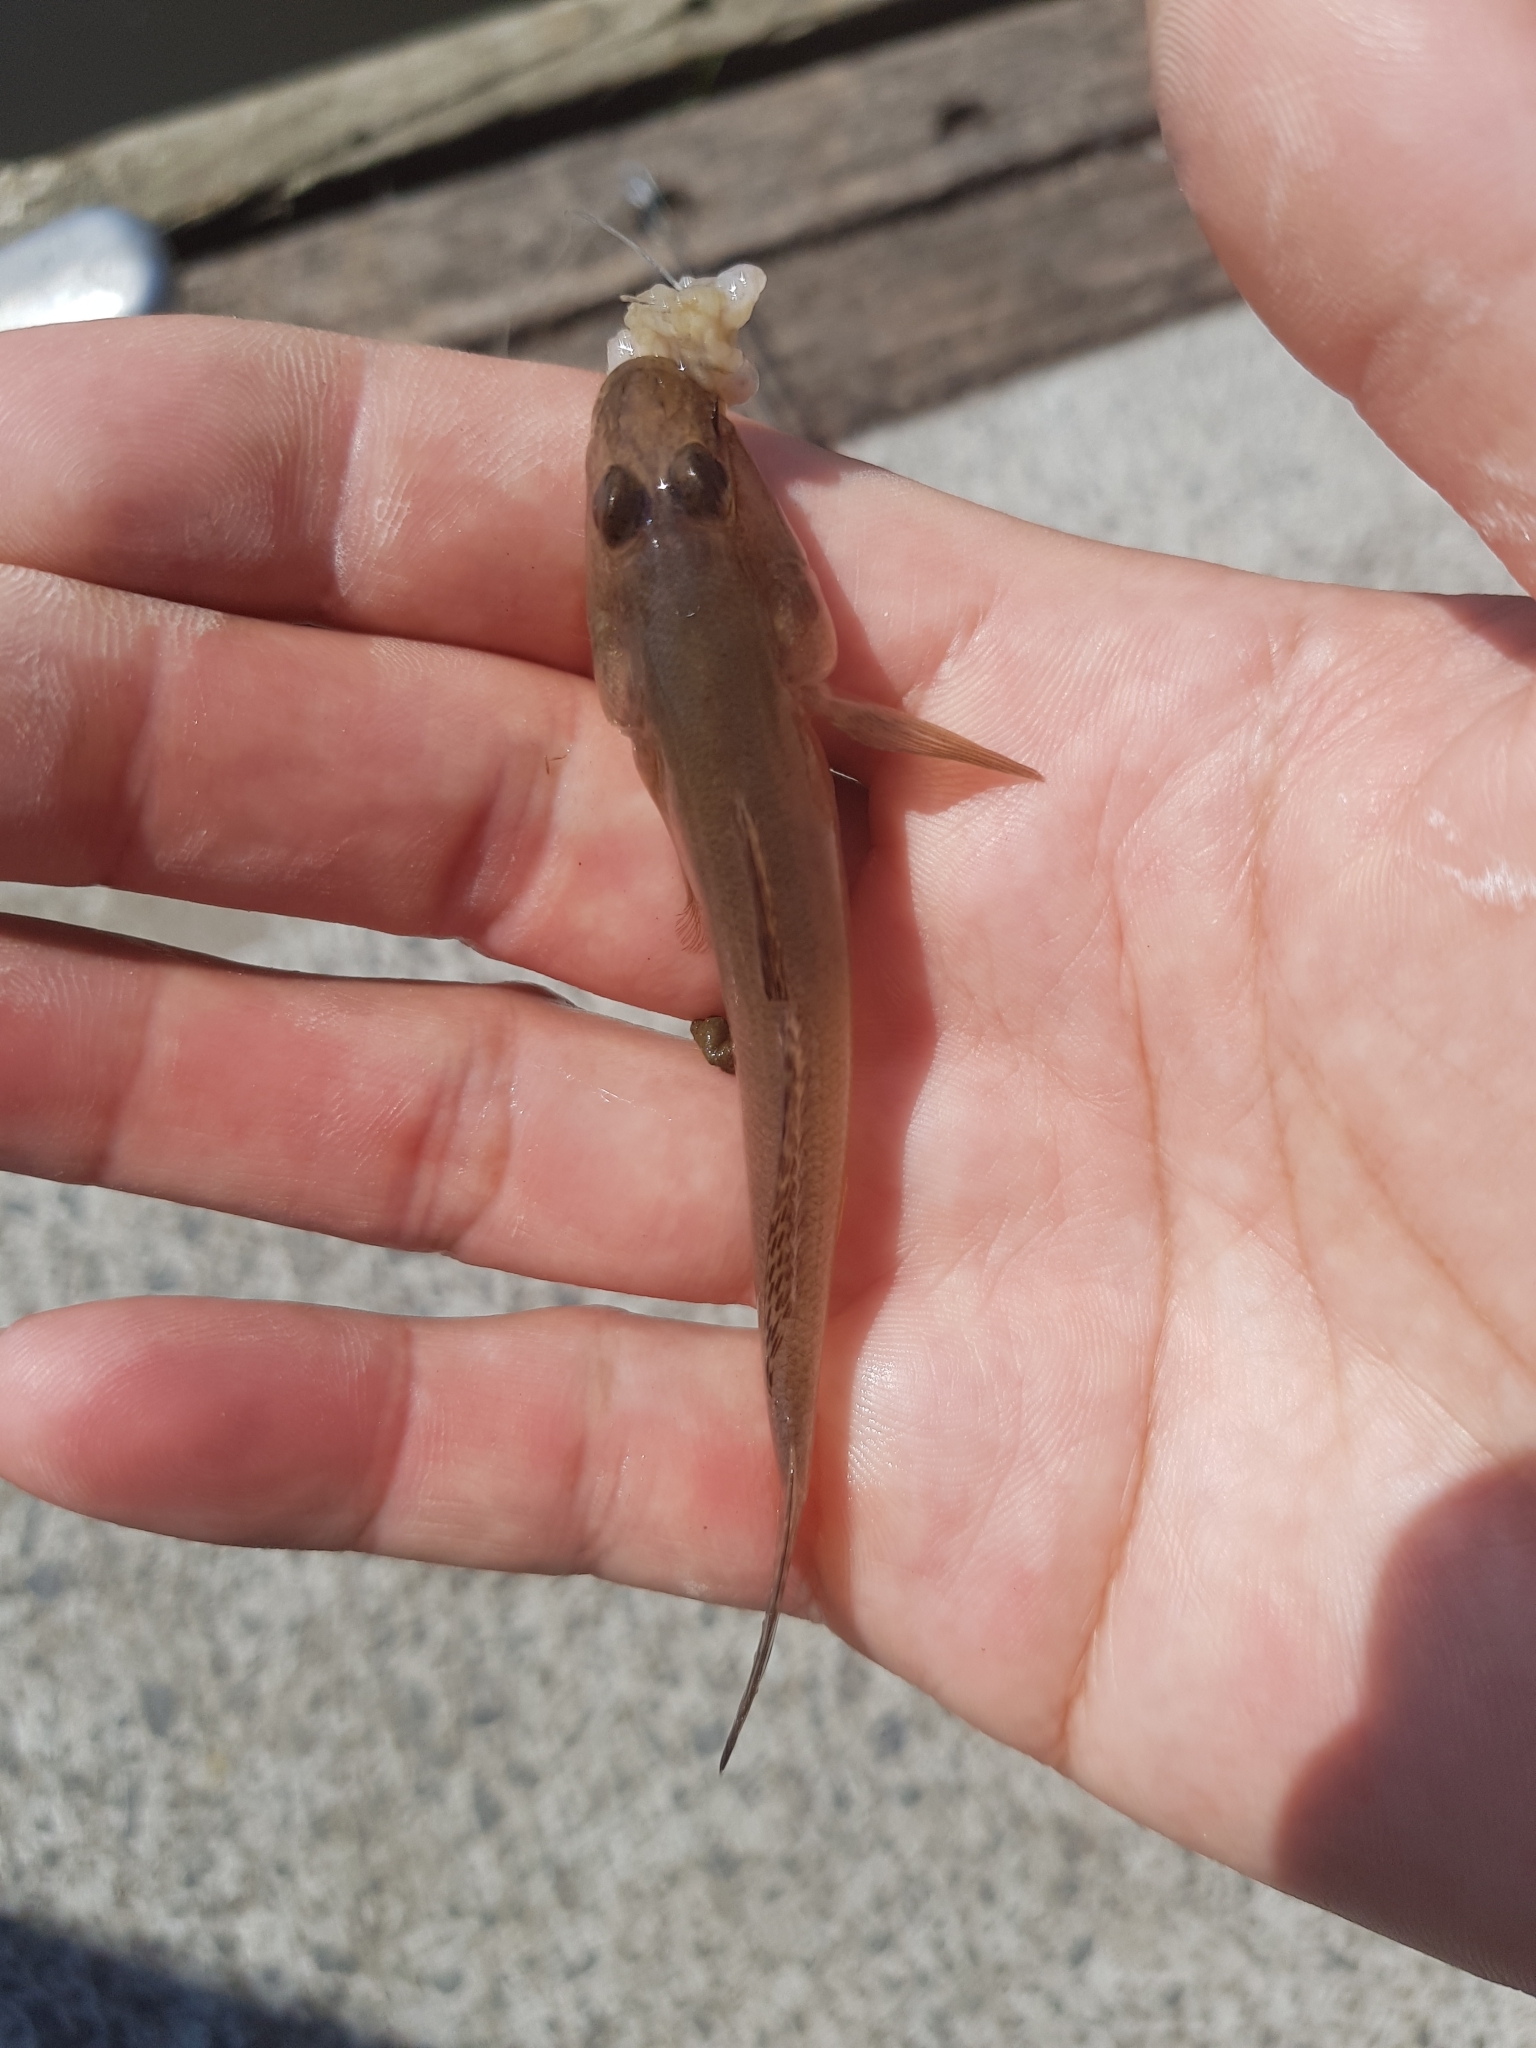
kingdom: Animalia
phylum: Chordata
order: Perciformes
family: Gobiidae
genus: Acanthogobius
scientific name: Acanthogobius flavimanus
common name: Yellowfin goby
